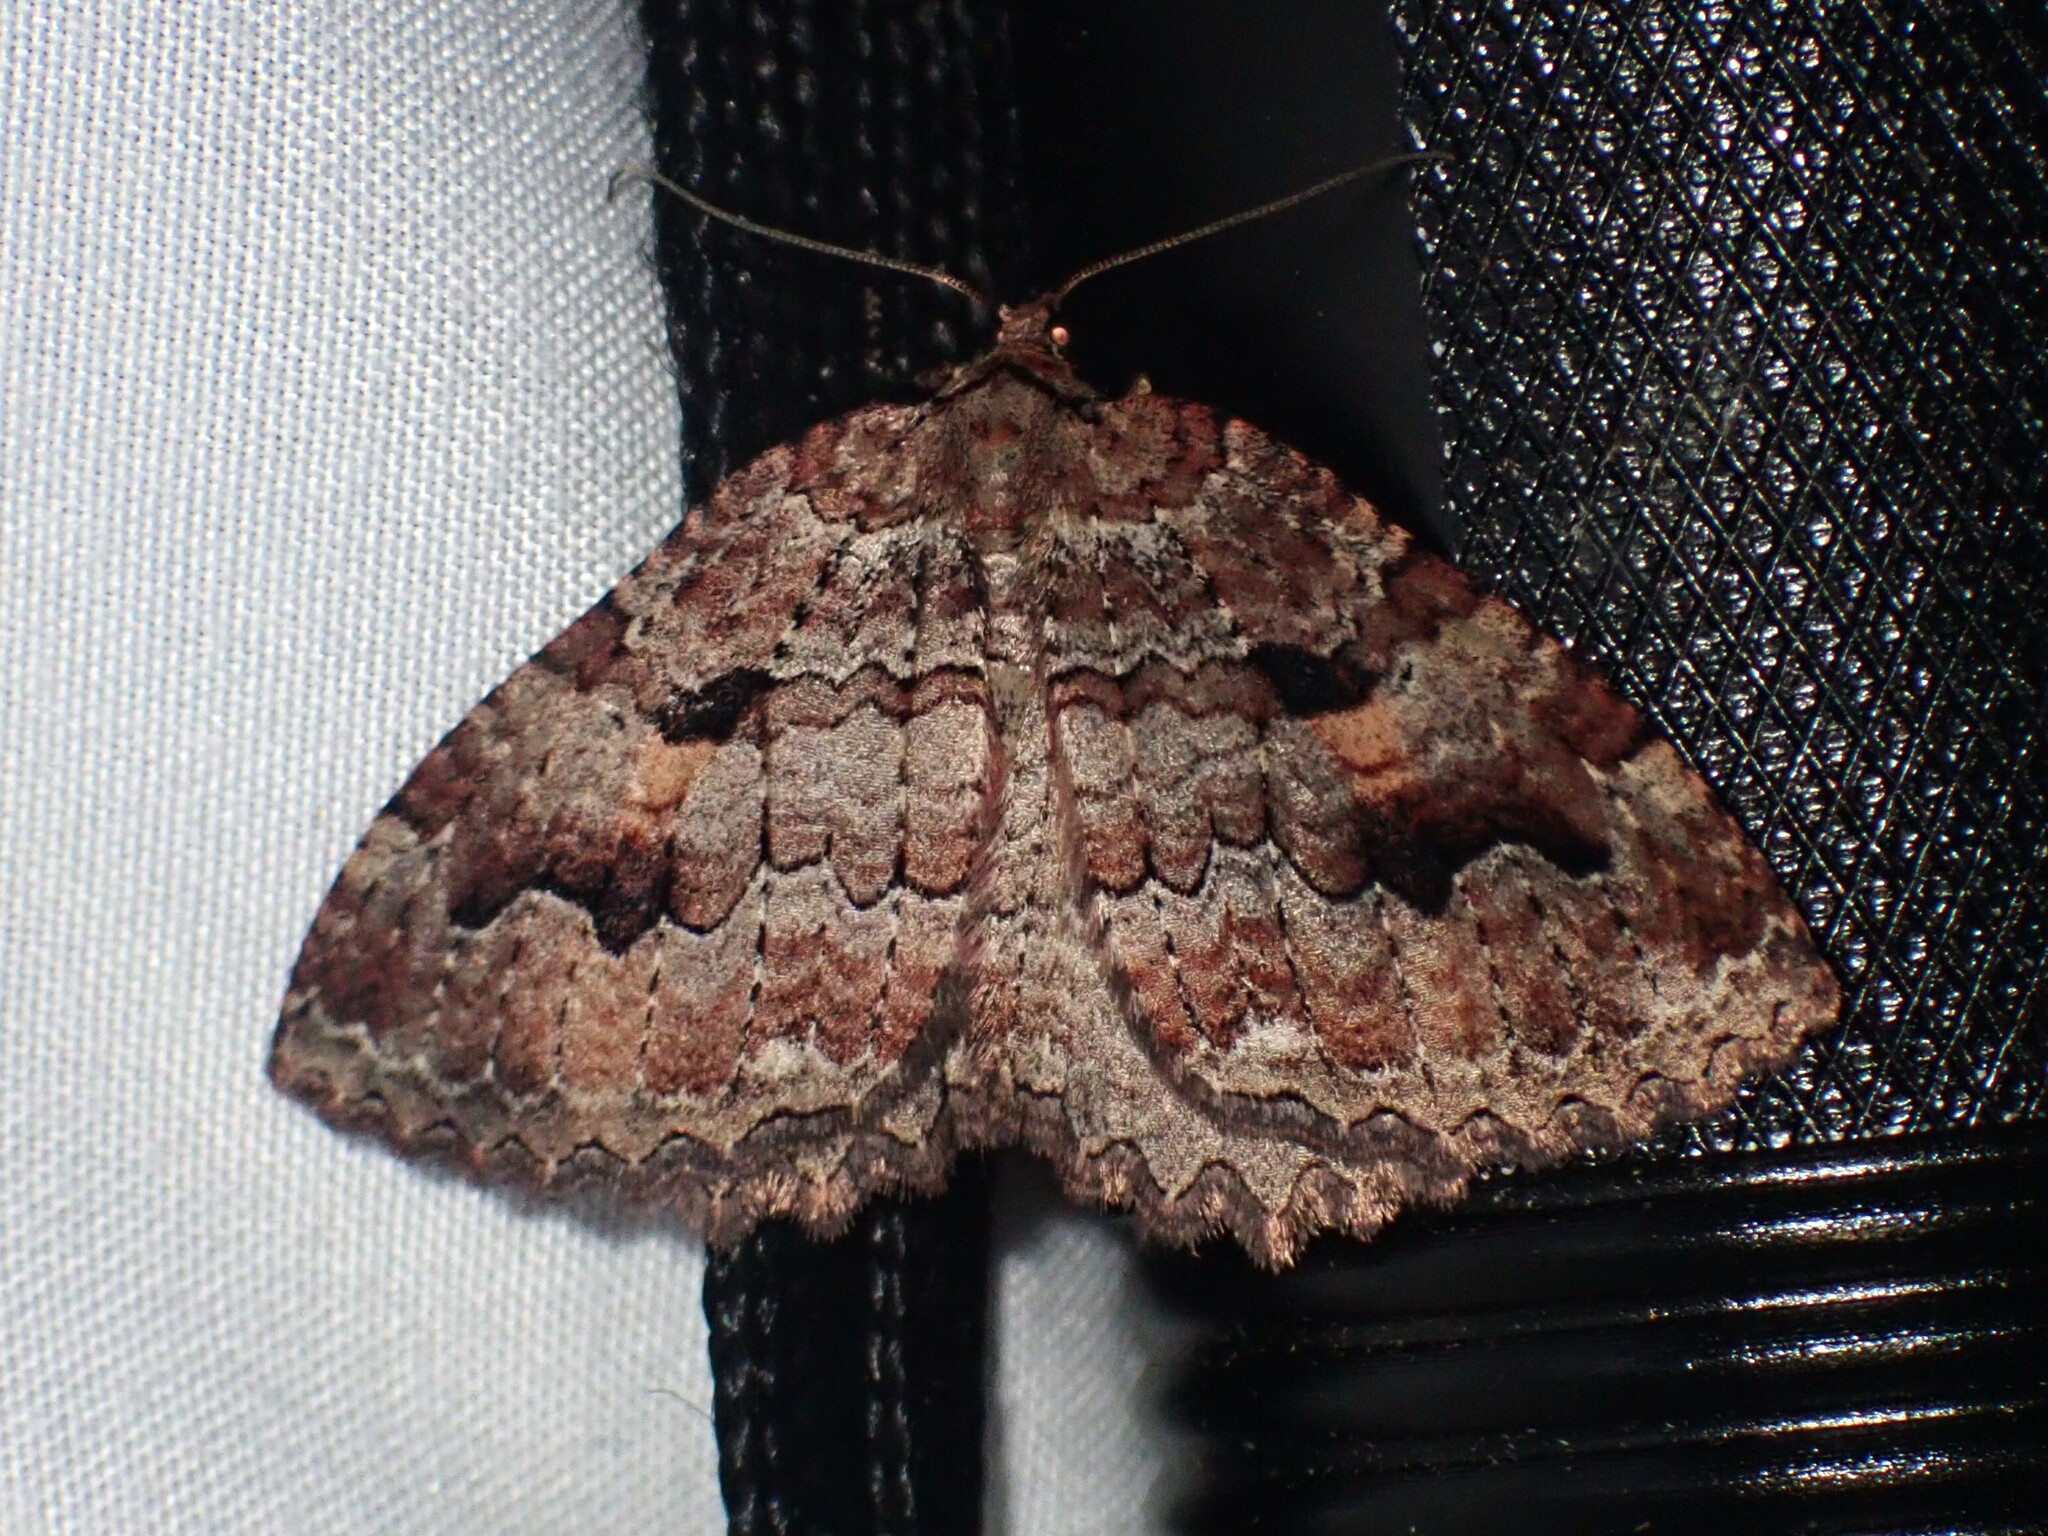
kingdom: Animalia
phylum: Arthropoda
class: Insecta
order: Lepidoptera
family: Geometridae
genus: Triphosa
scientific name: Triphosa haesitata
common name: Tissue moth
